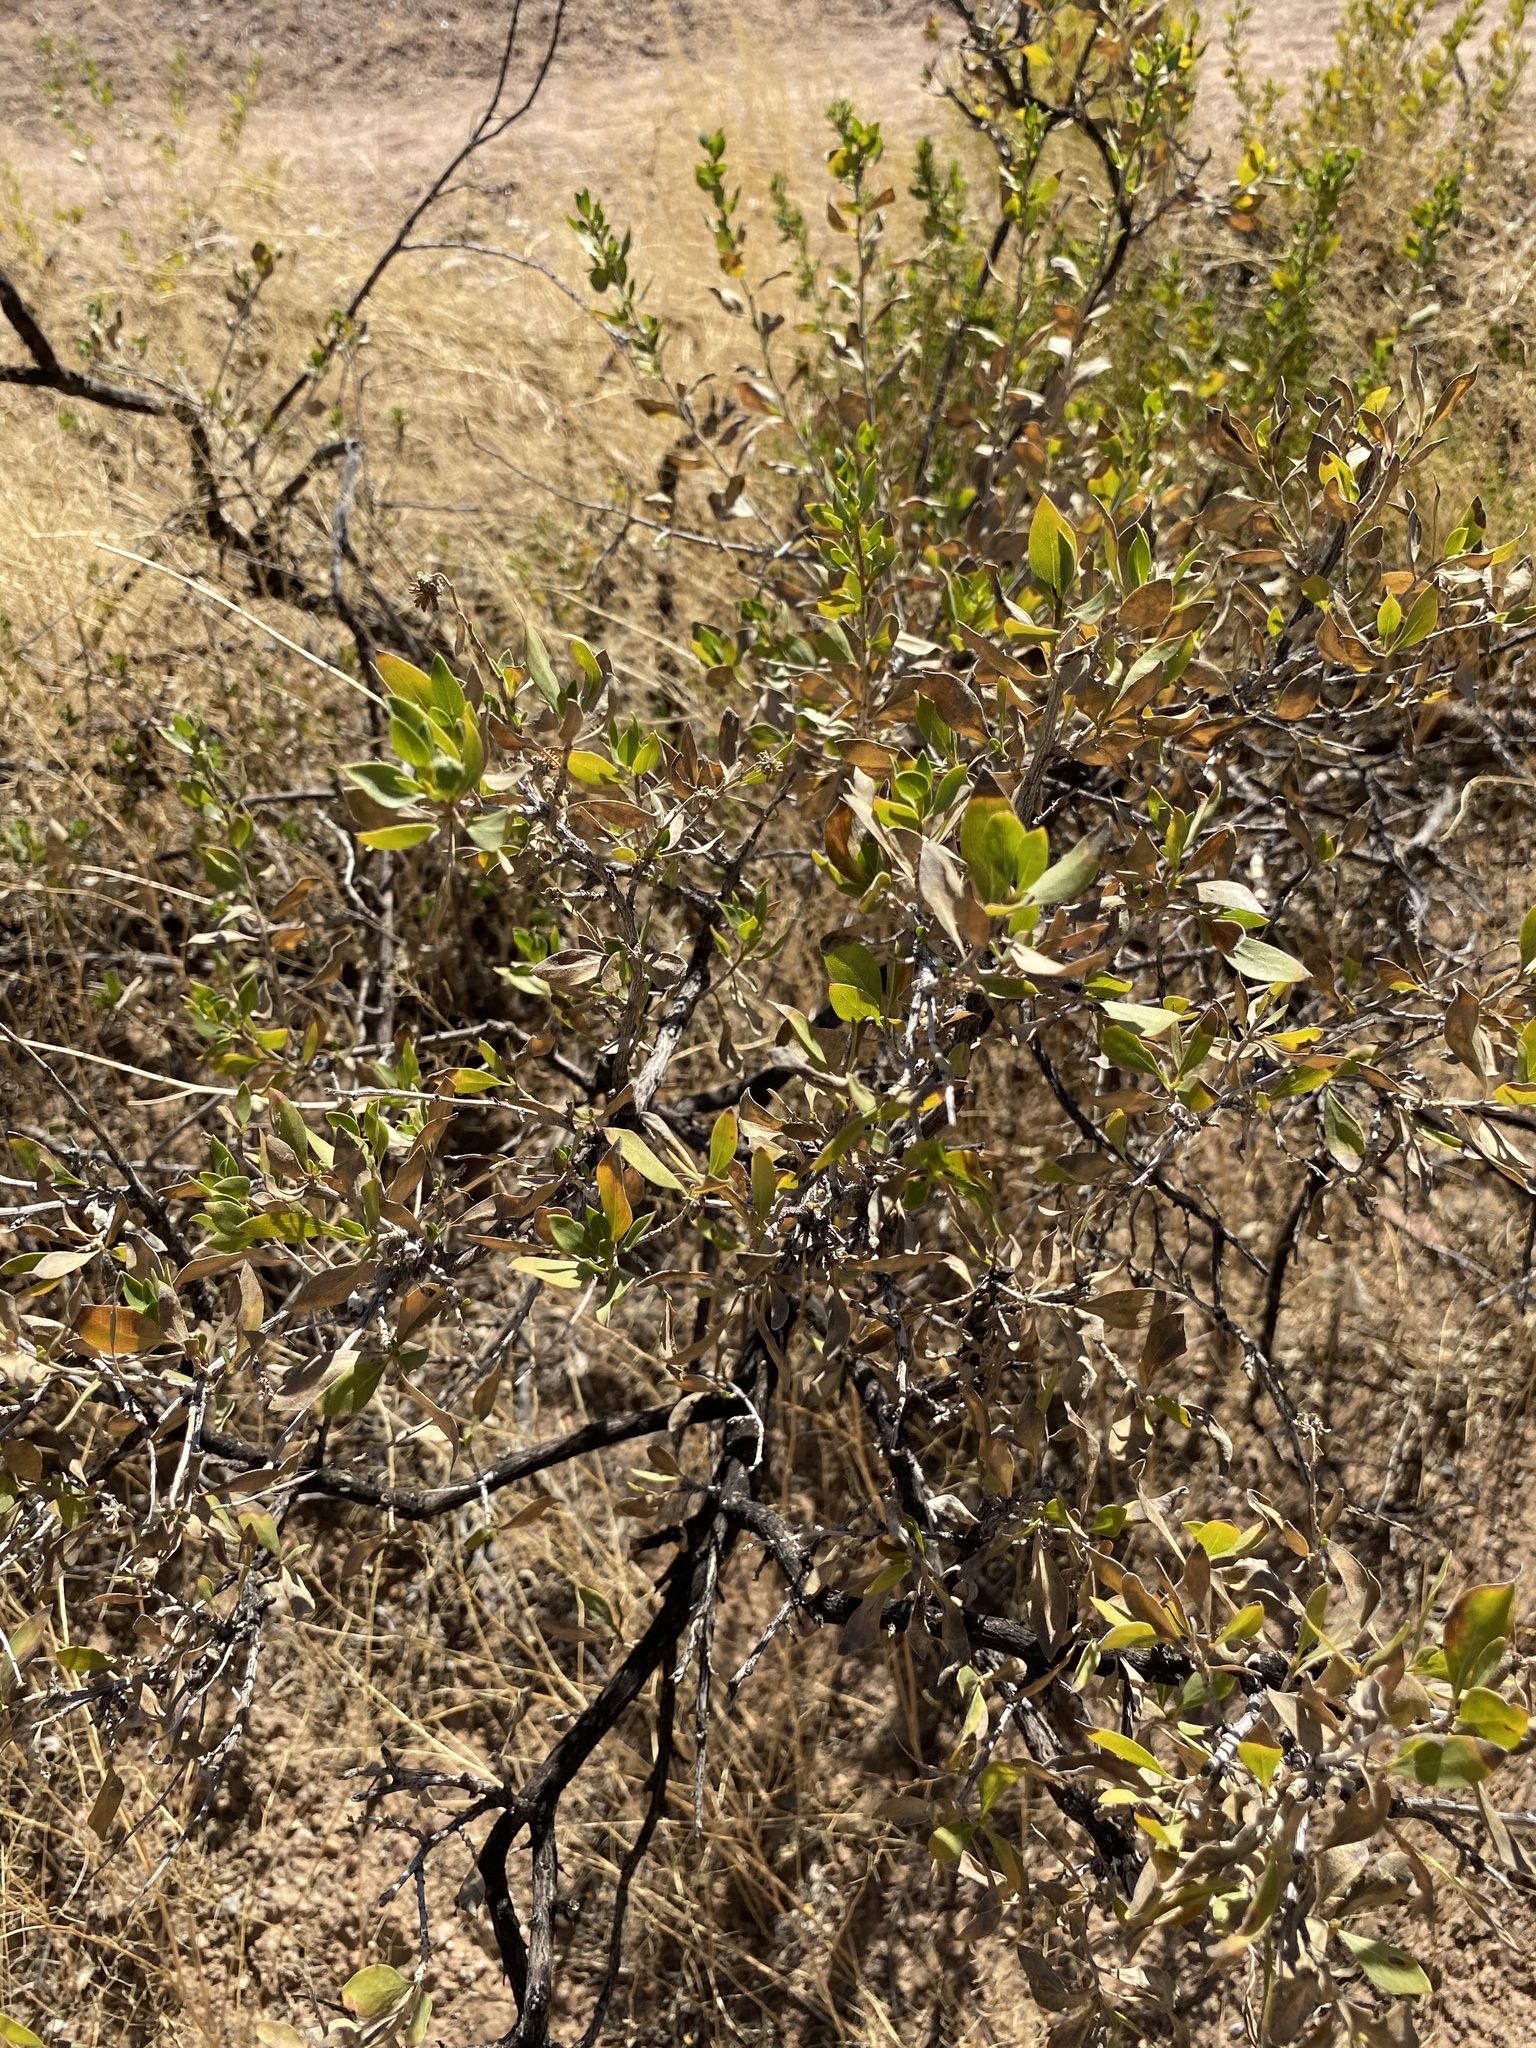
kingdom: Plantae
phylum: Tracheophyta
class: Magnoliopsida
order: Asterales
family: Asteraceae
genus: Flourensia
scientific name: Flourensia cernua
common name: Varnishbush
